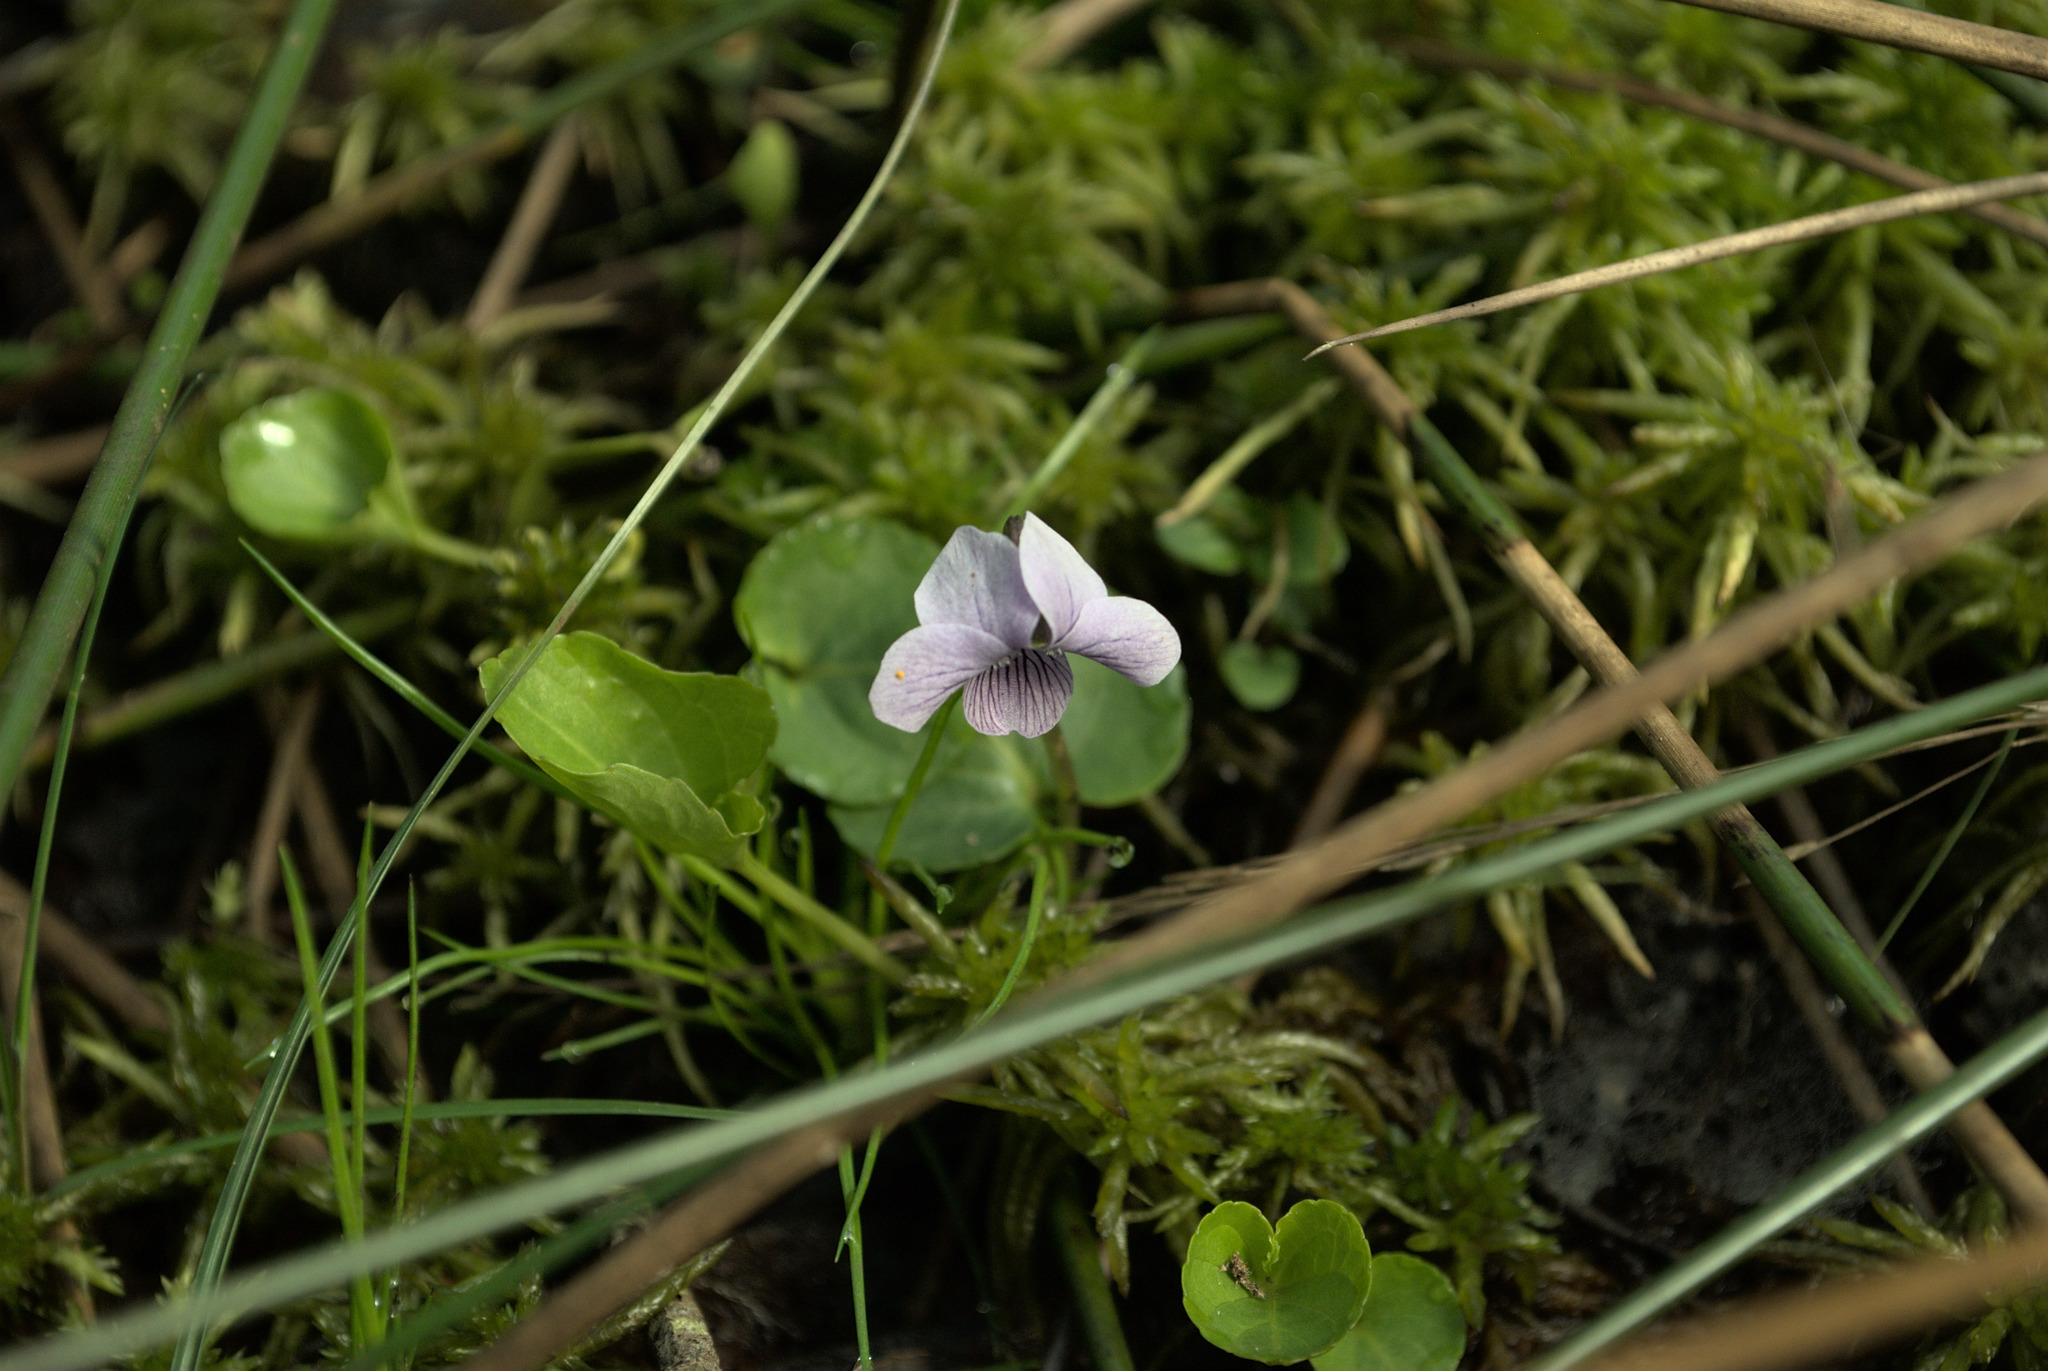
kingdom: Plantae
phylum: Tracheophyta
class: Magnoliopsida
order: Malpighiales
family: Violaceae
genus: Viola
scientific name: Viola palustris
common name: Marsh violet
